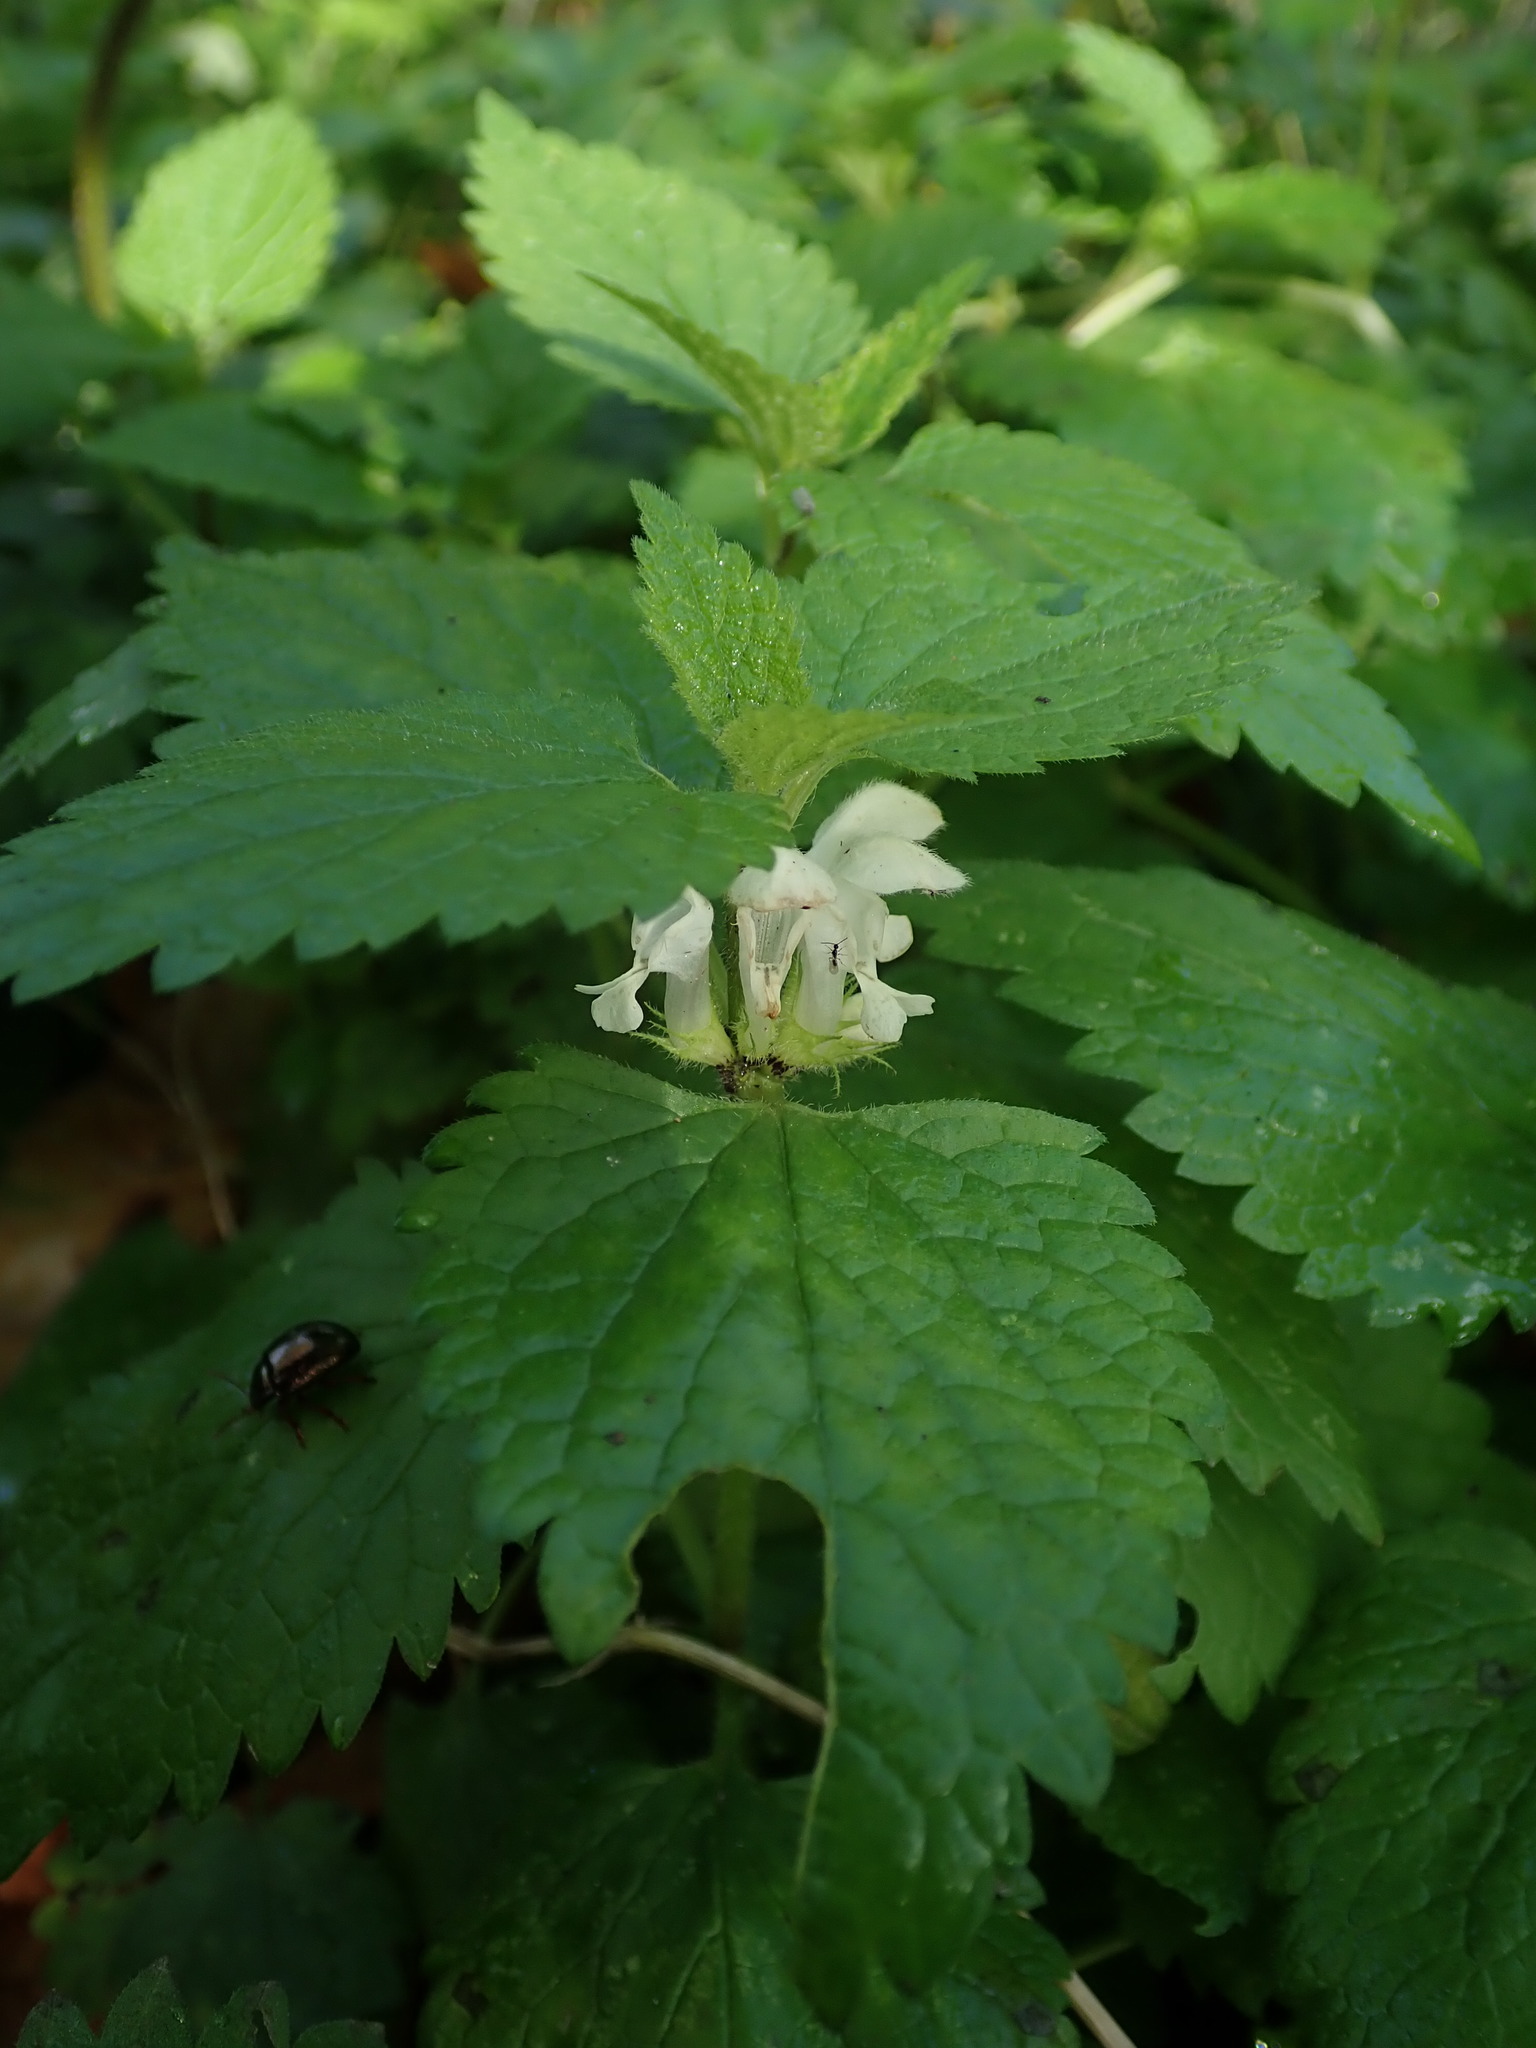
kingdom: Plantae
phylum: Tracheophyta
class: Magnoliopsida
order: Lamiales
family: Lamiaceae
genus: Lamium
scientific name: Lamium album
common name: White dead-nettle
